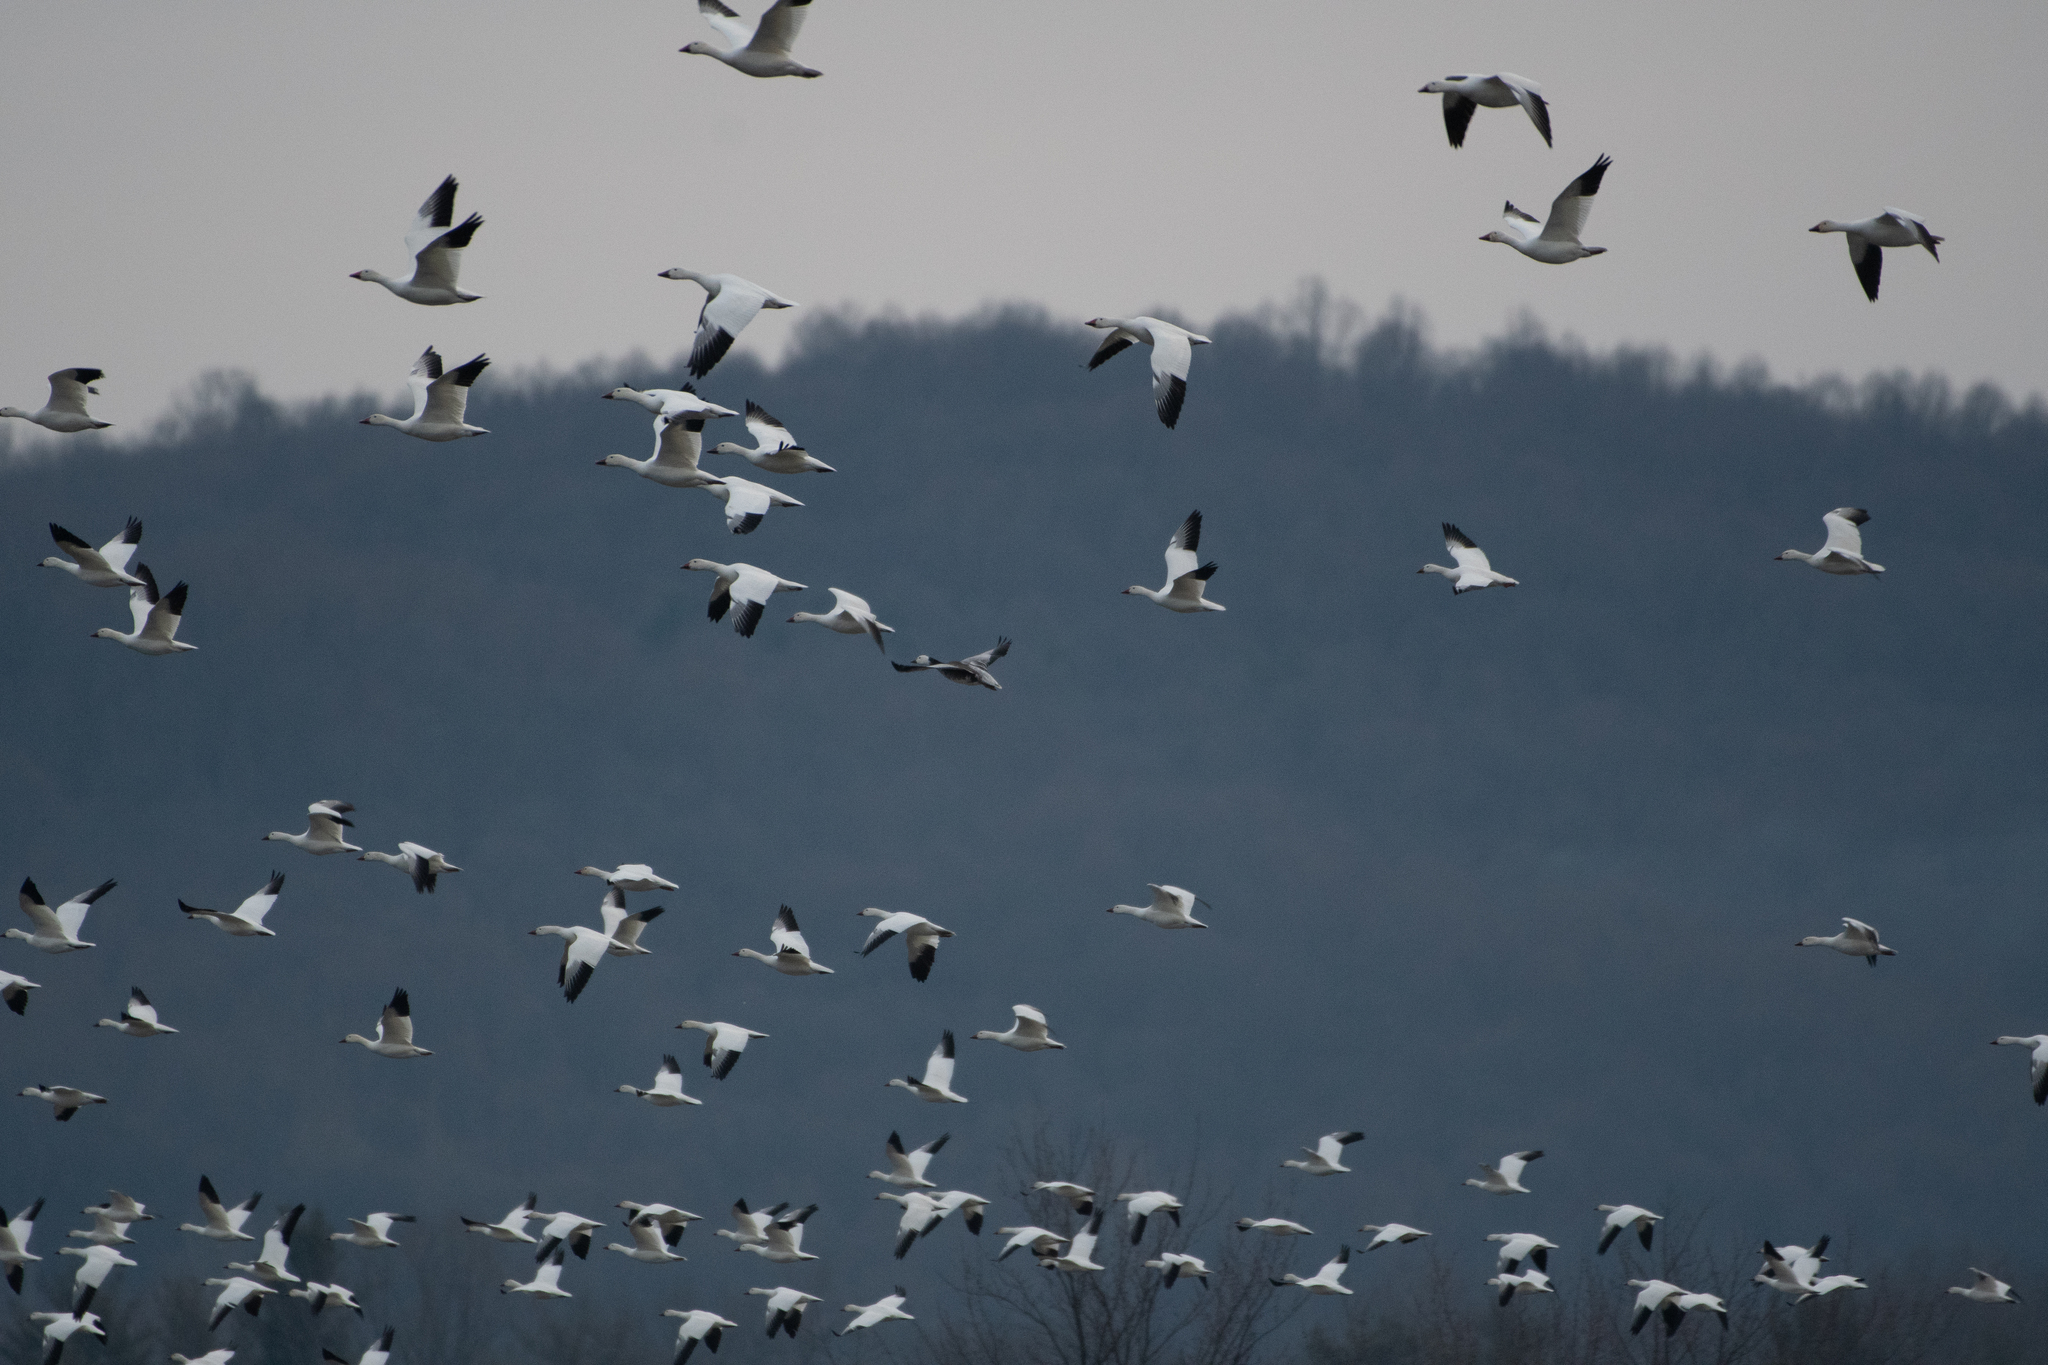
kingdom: Animalia
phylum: Chordata
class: Aves
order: Anseriformes
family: Anatidae
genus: Anser
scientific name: Anser caerulescens
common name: Snow goose
